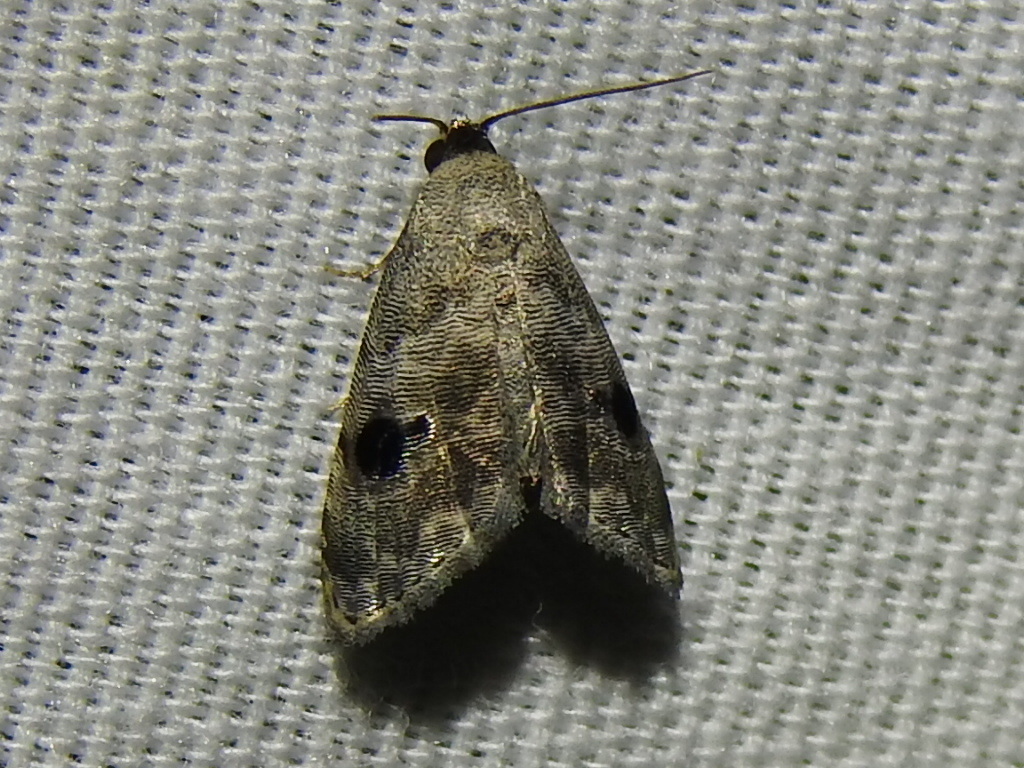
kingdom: Animalia
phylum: Arthropoda
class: Insecta
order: Lepidoptera
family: Noctuidae
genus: Abablemma
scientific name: Abablemma duomaculata
